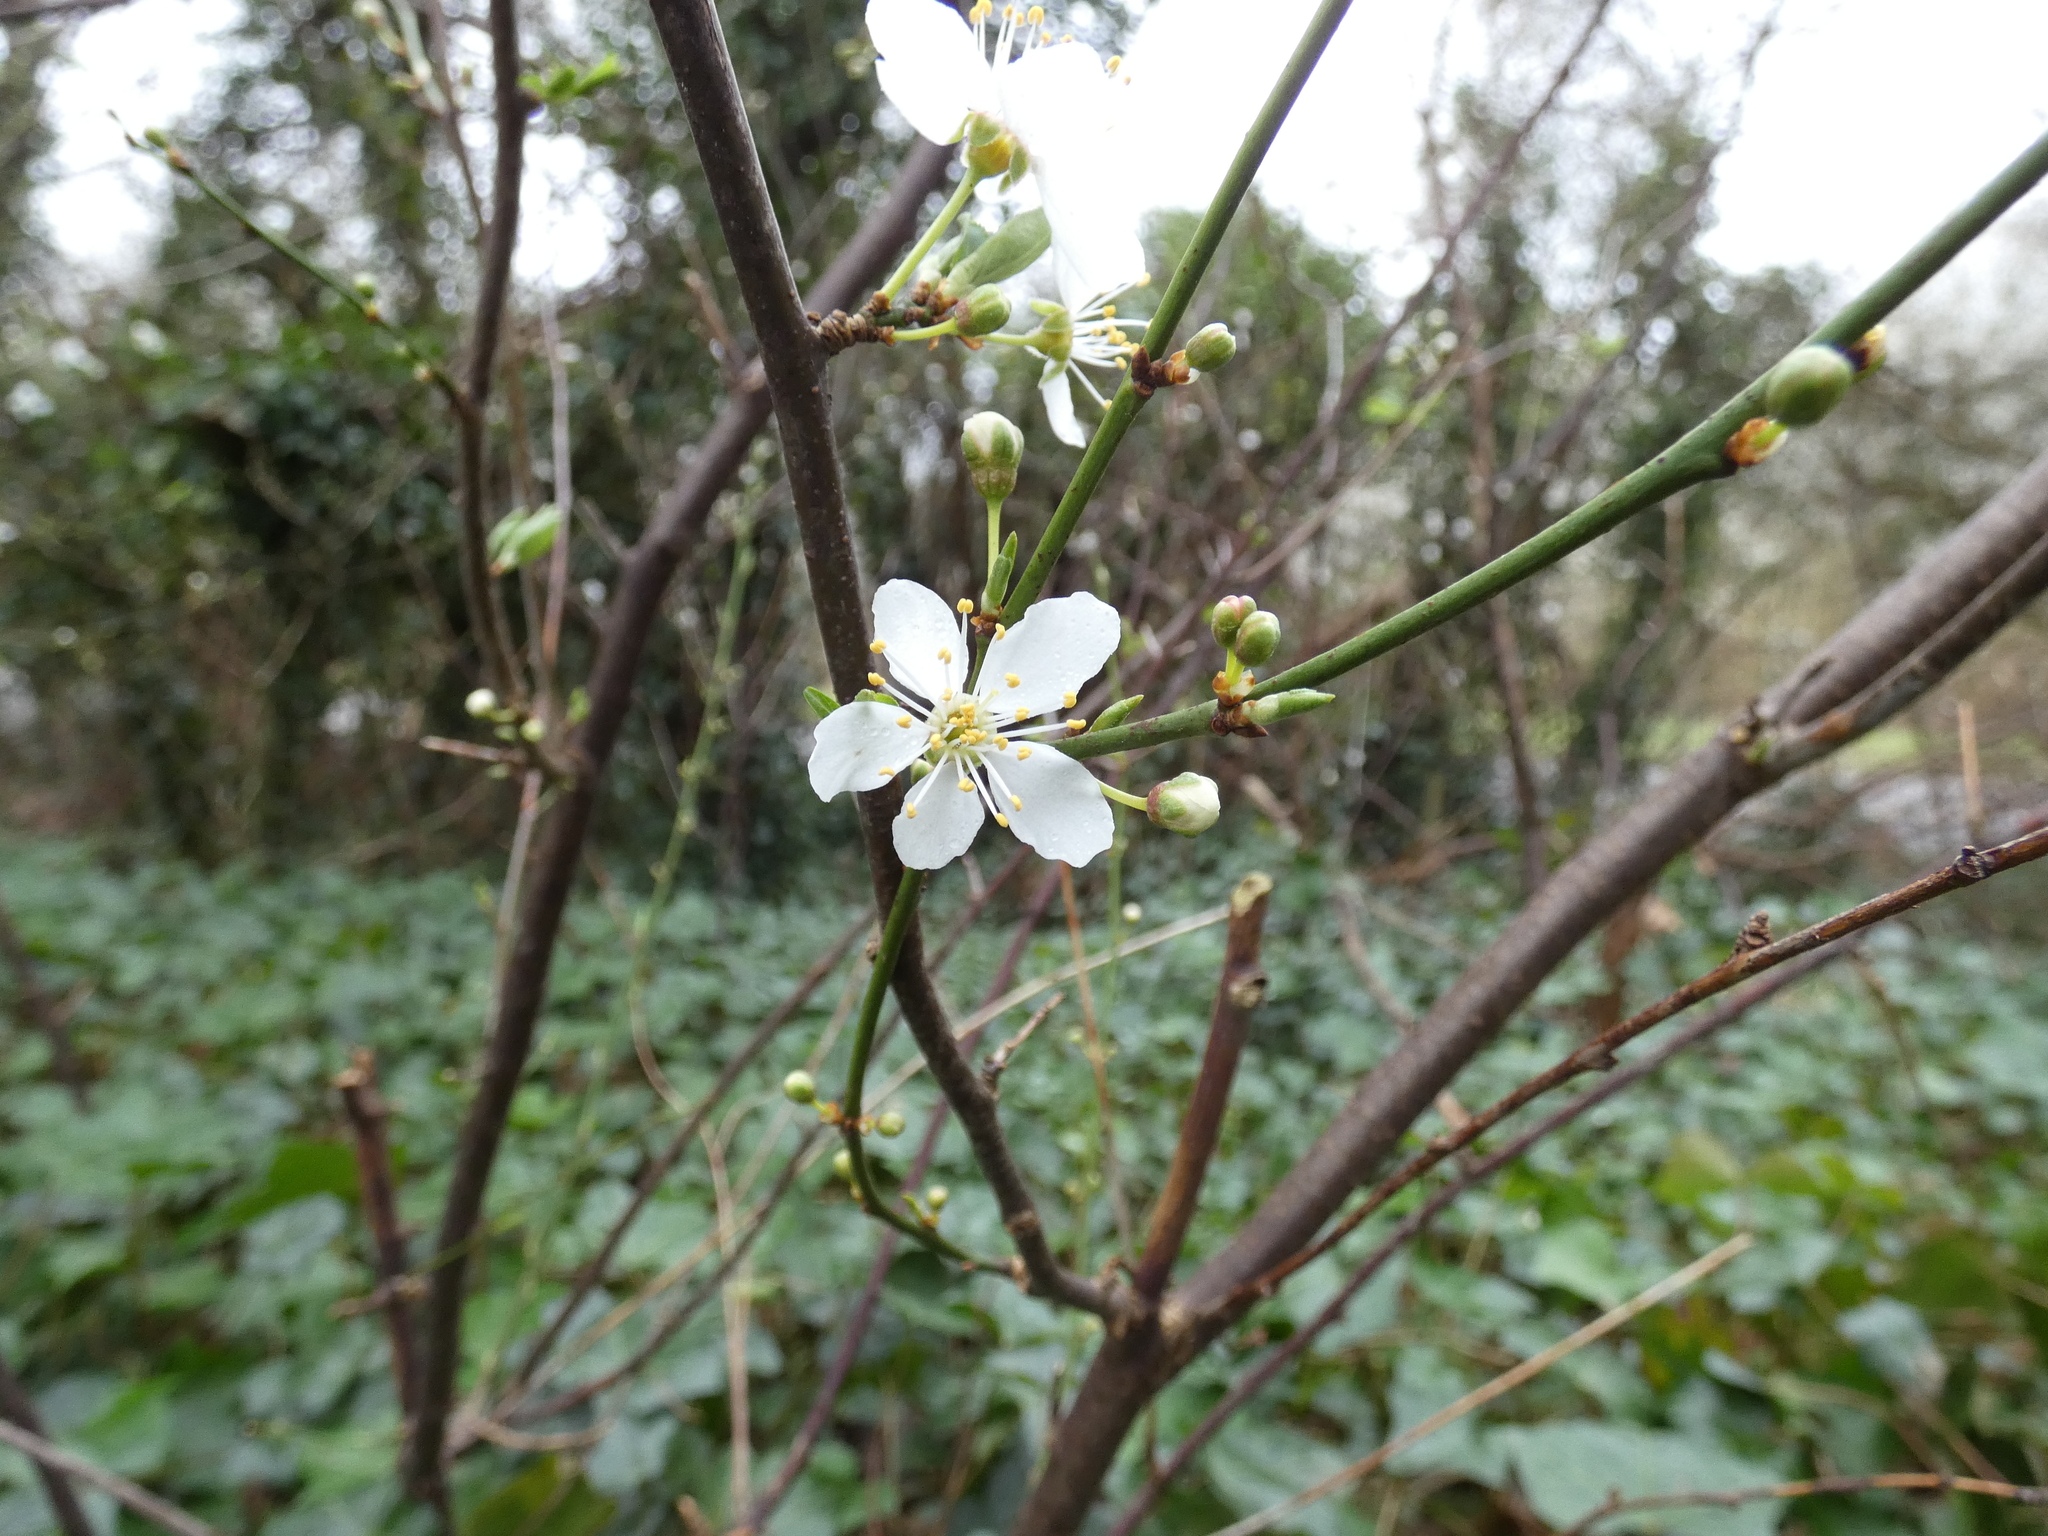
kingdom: Plantae
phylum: Tracheophyta
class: Magnoliopsida
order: Rosales
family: Rosaceae
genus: Prunus
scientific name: Prunus cerasifera
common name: Cherry plum
